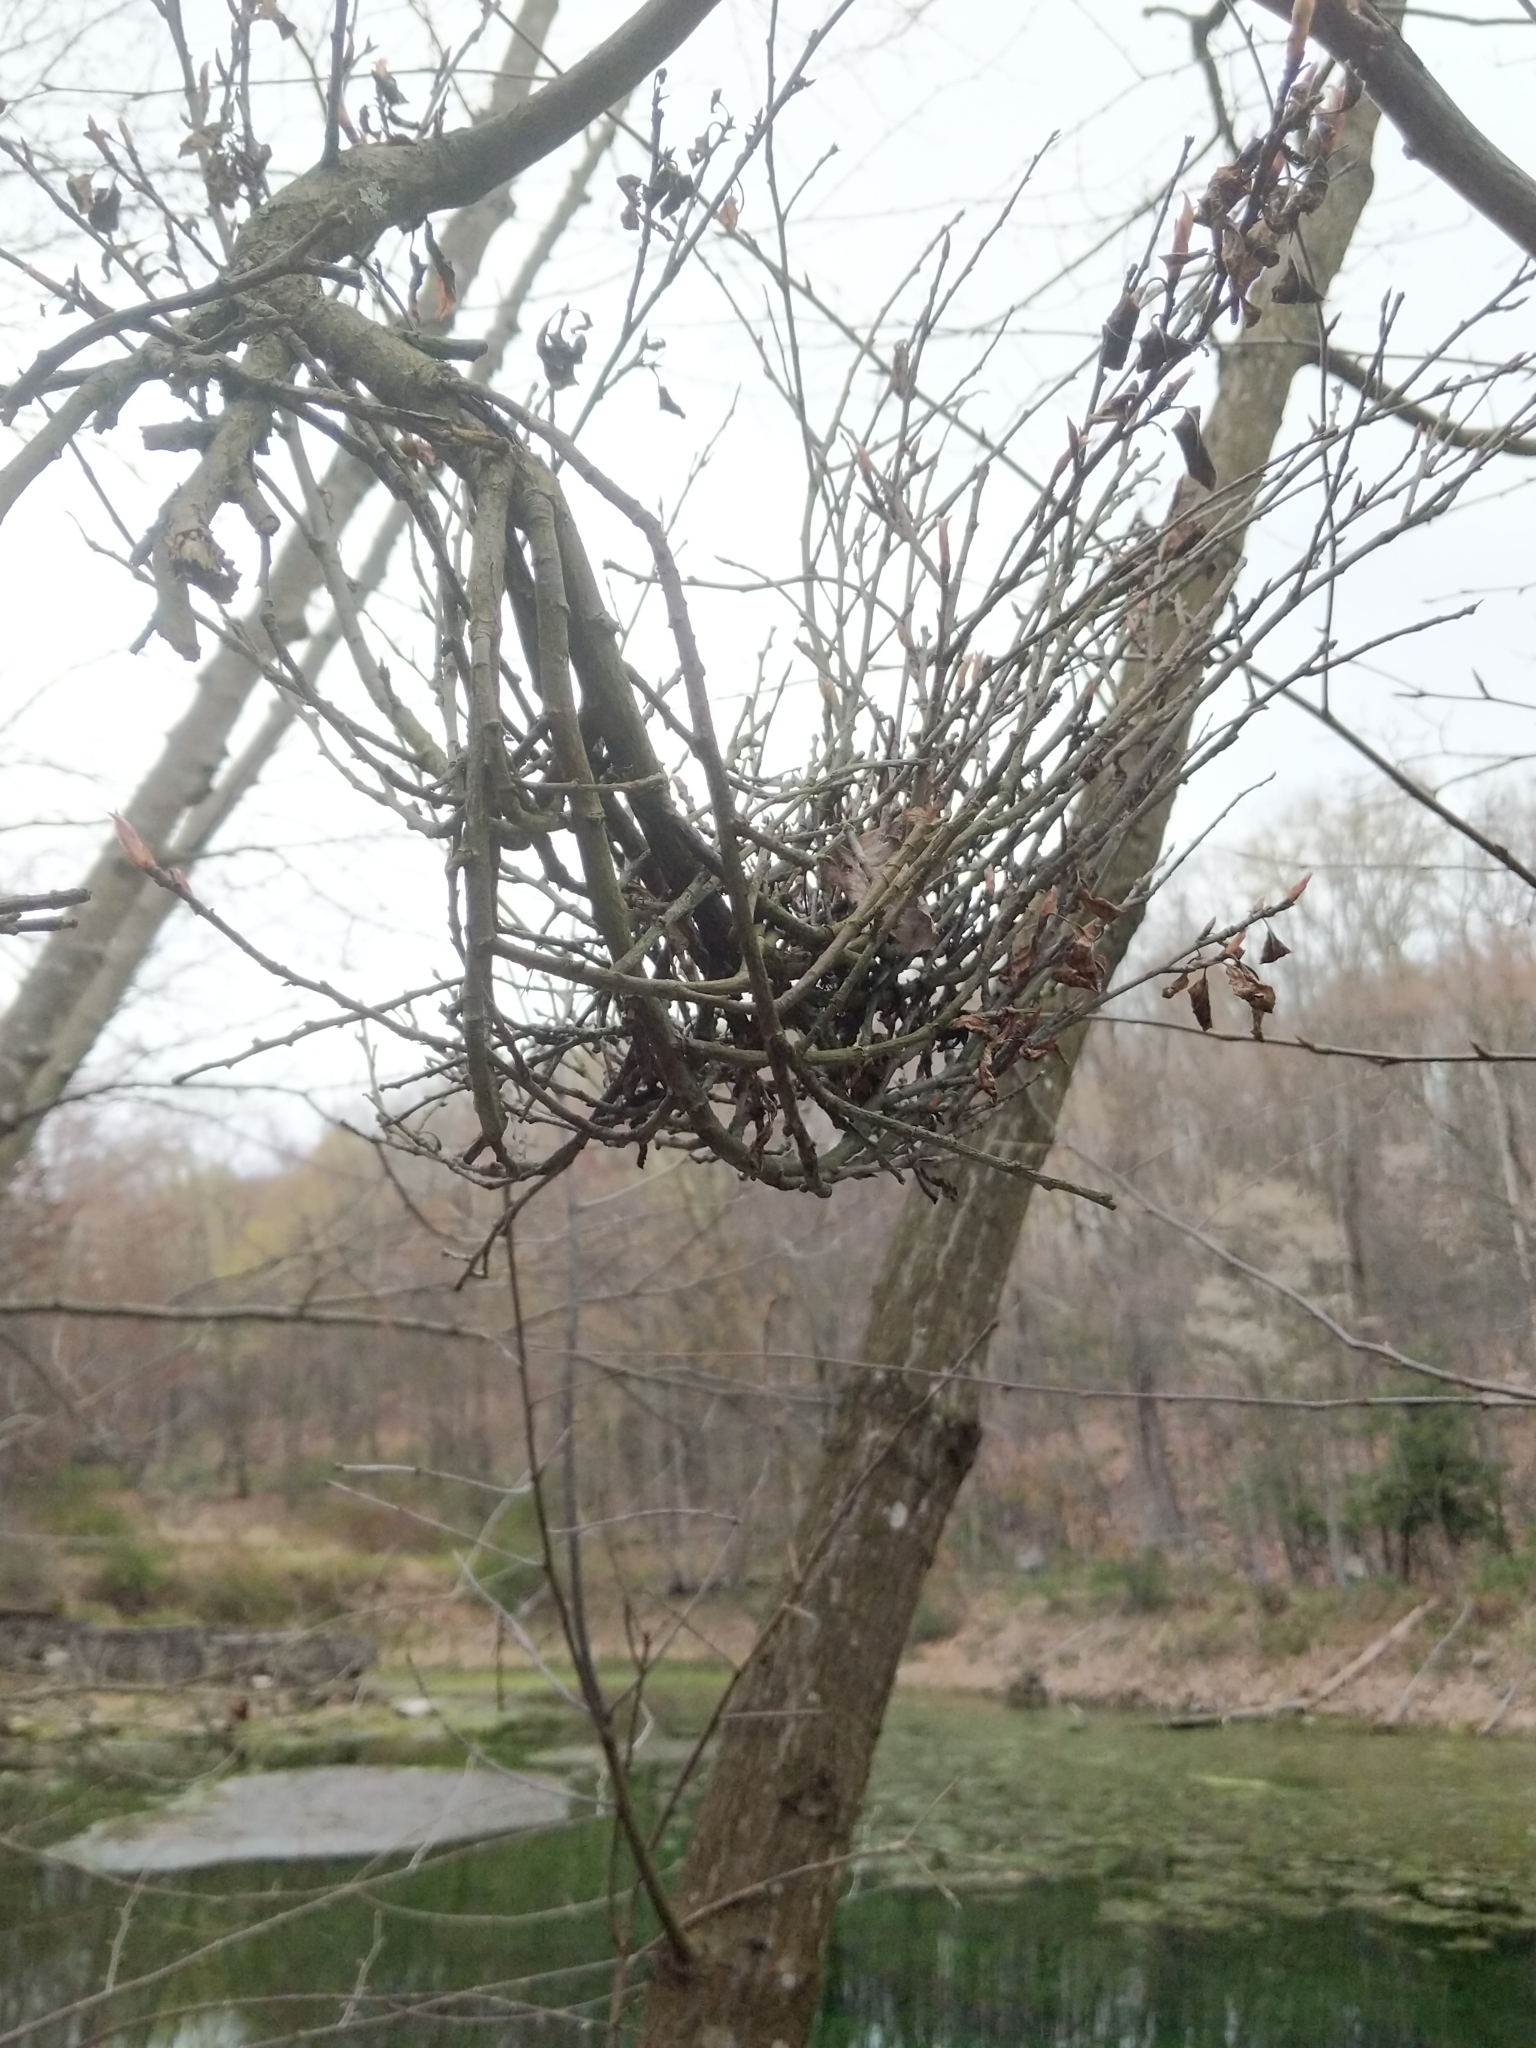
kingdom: Fungi
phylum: Ascomycota
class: Dothideomycetes
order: Venturiales
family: Venturiaceae
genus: Apiosporina
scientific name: Apiosporina collinsii
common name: Black leaf
